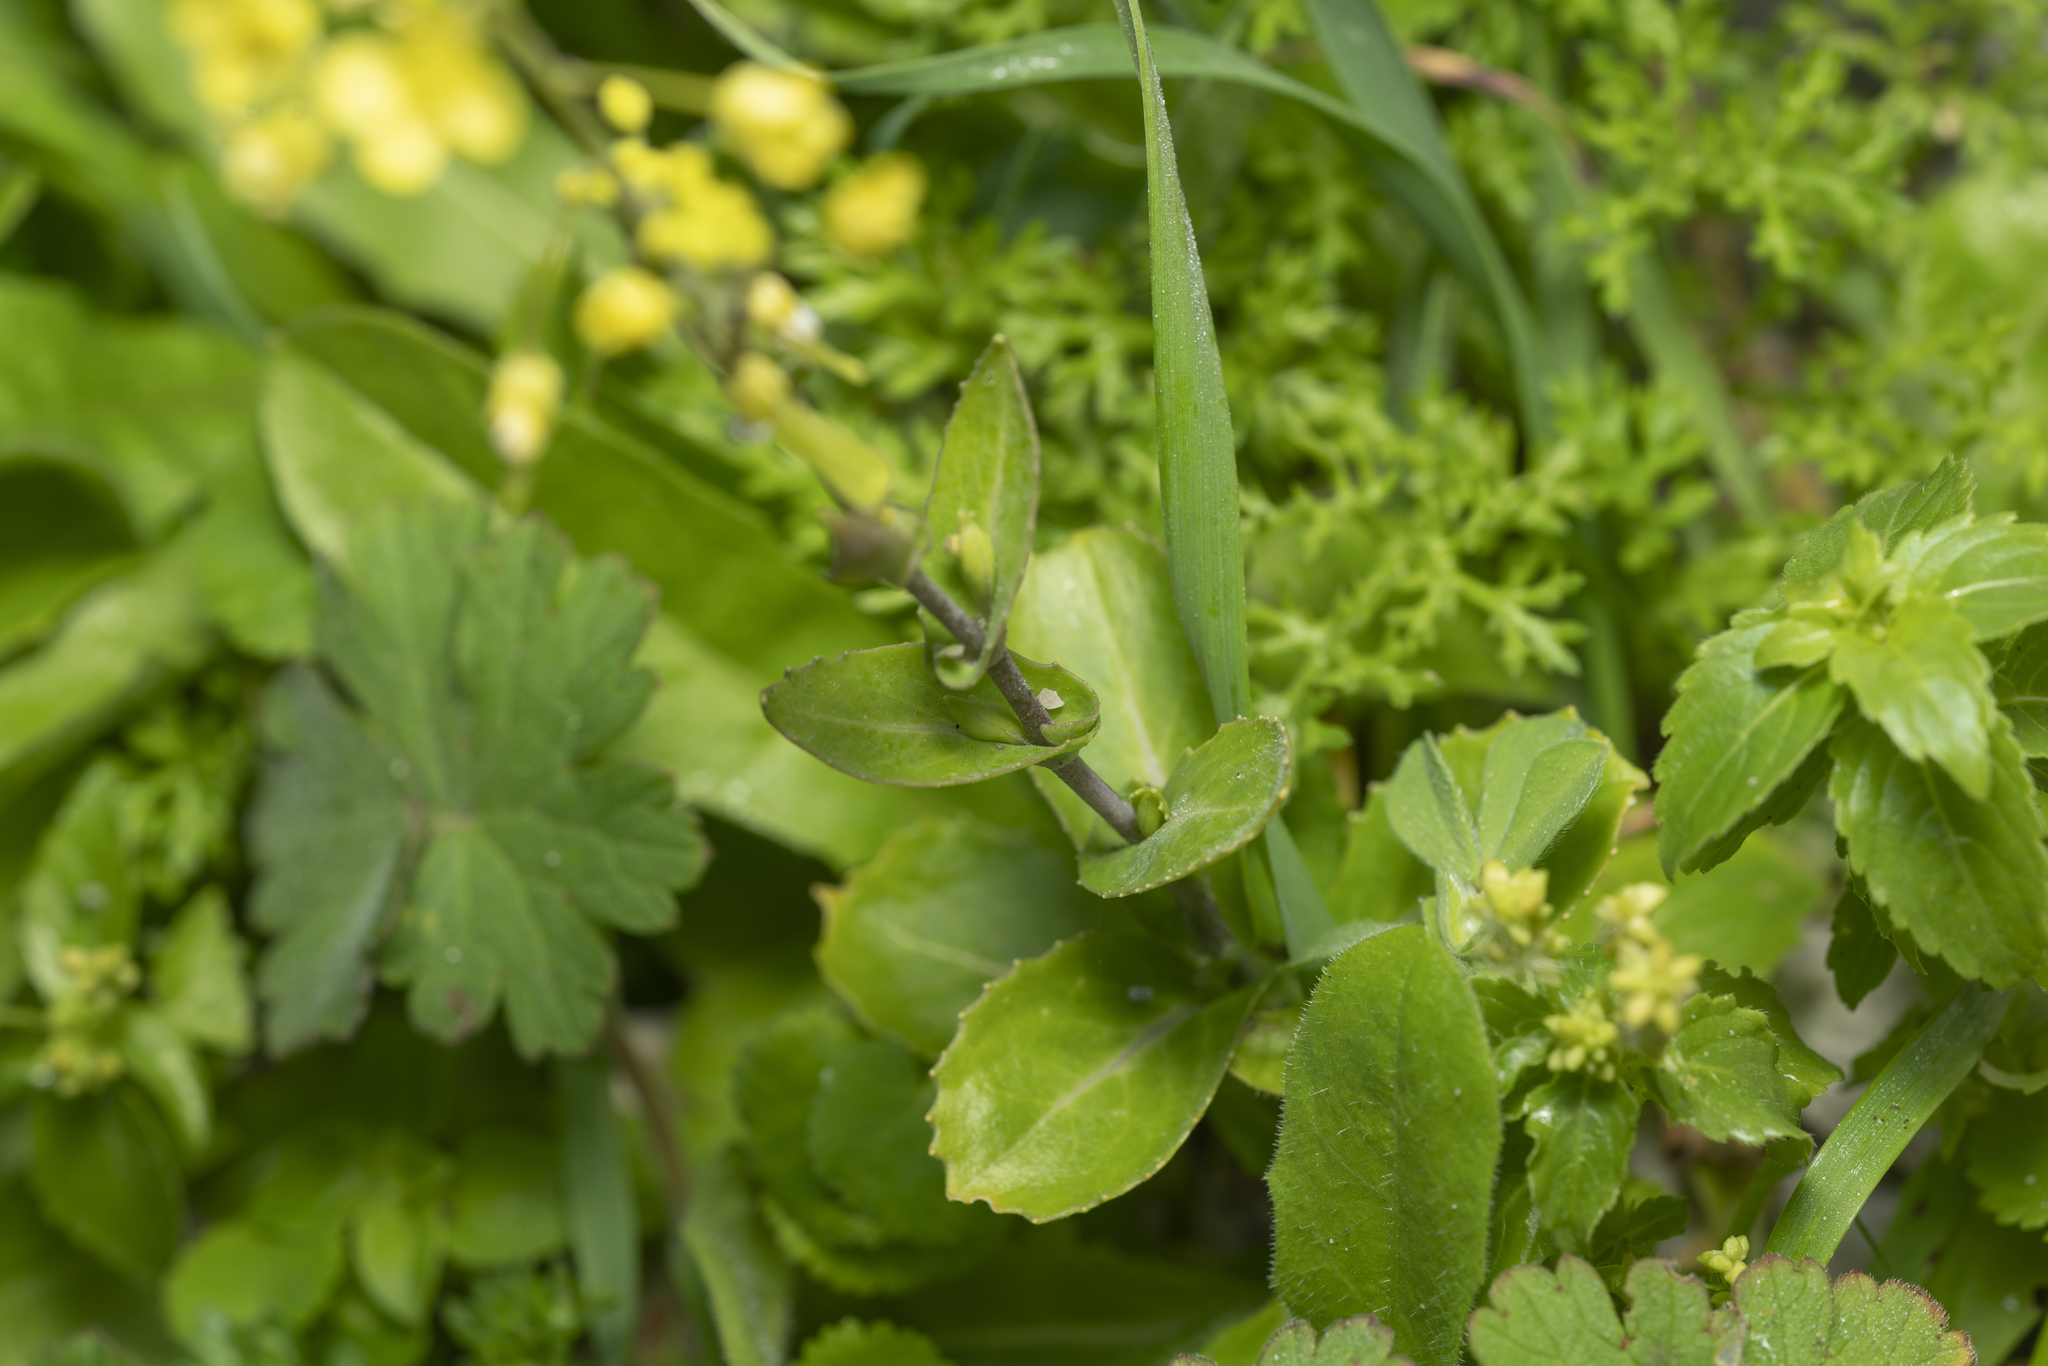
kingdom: Plantae
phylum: Tracheophyta
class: Magnoliopsida
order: Brassicales
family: Brassicaceae
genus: Isatis
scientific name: Isatis lusitanica
